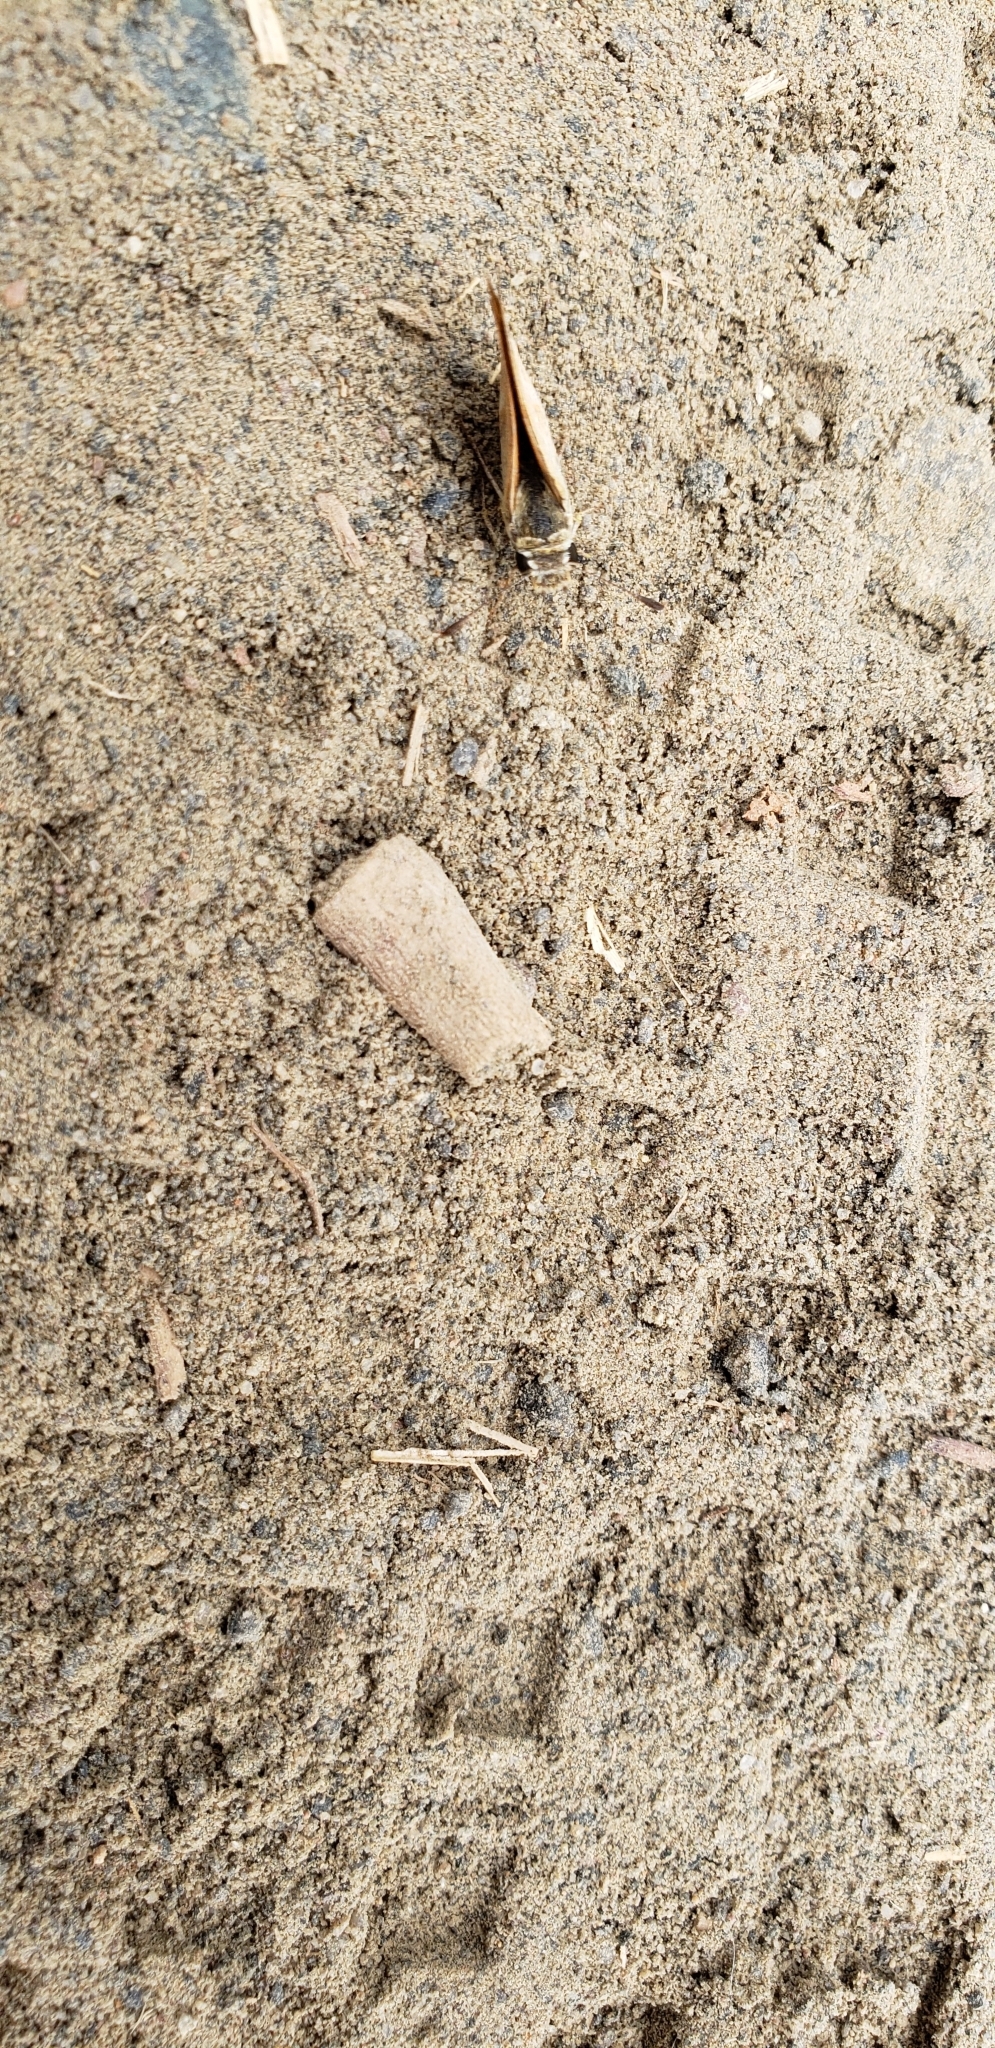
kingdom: Animalia
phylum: Arthropoda
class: Insecta
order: Lepidoptera
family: Hesperiidae
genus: Ochlodes
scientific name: Ochlodes sylvanoides
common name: Woodland skipper
